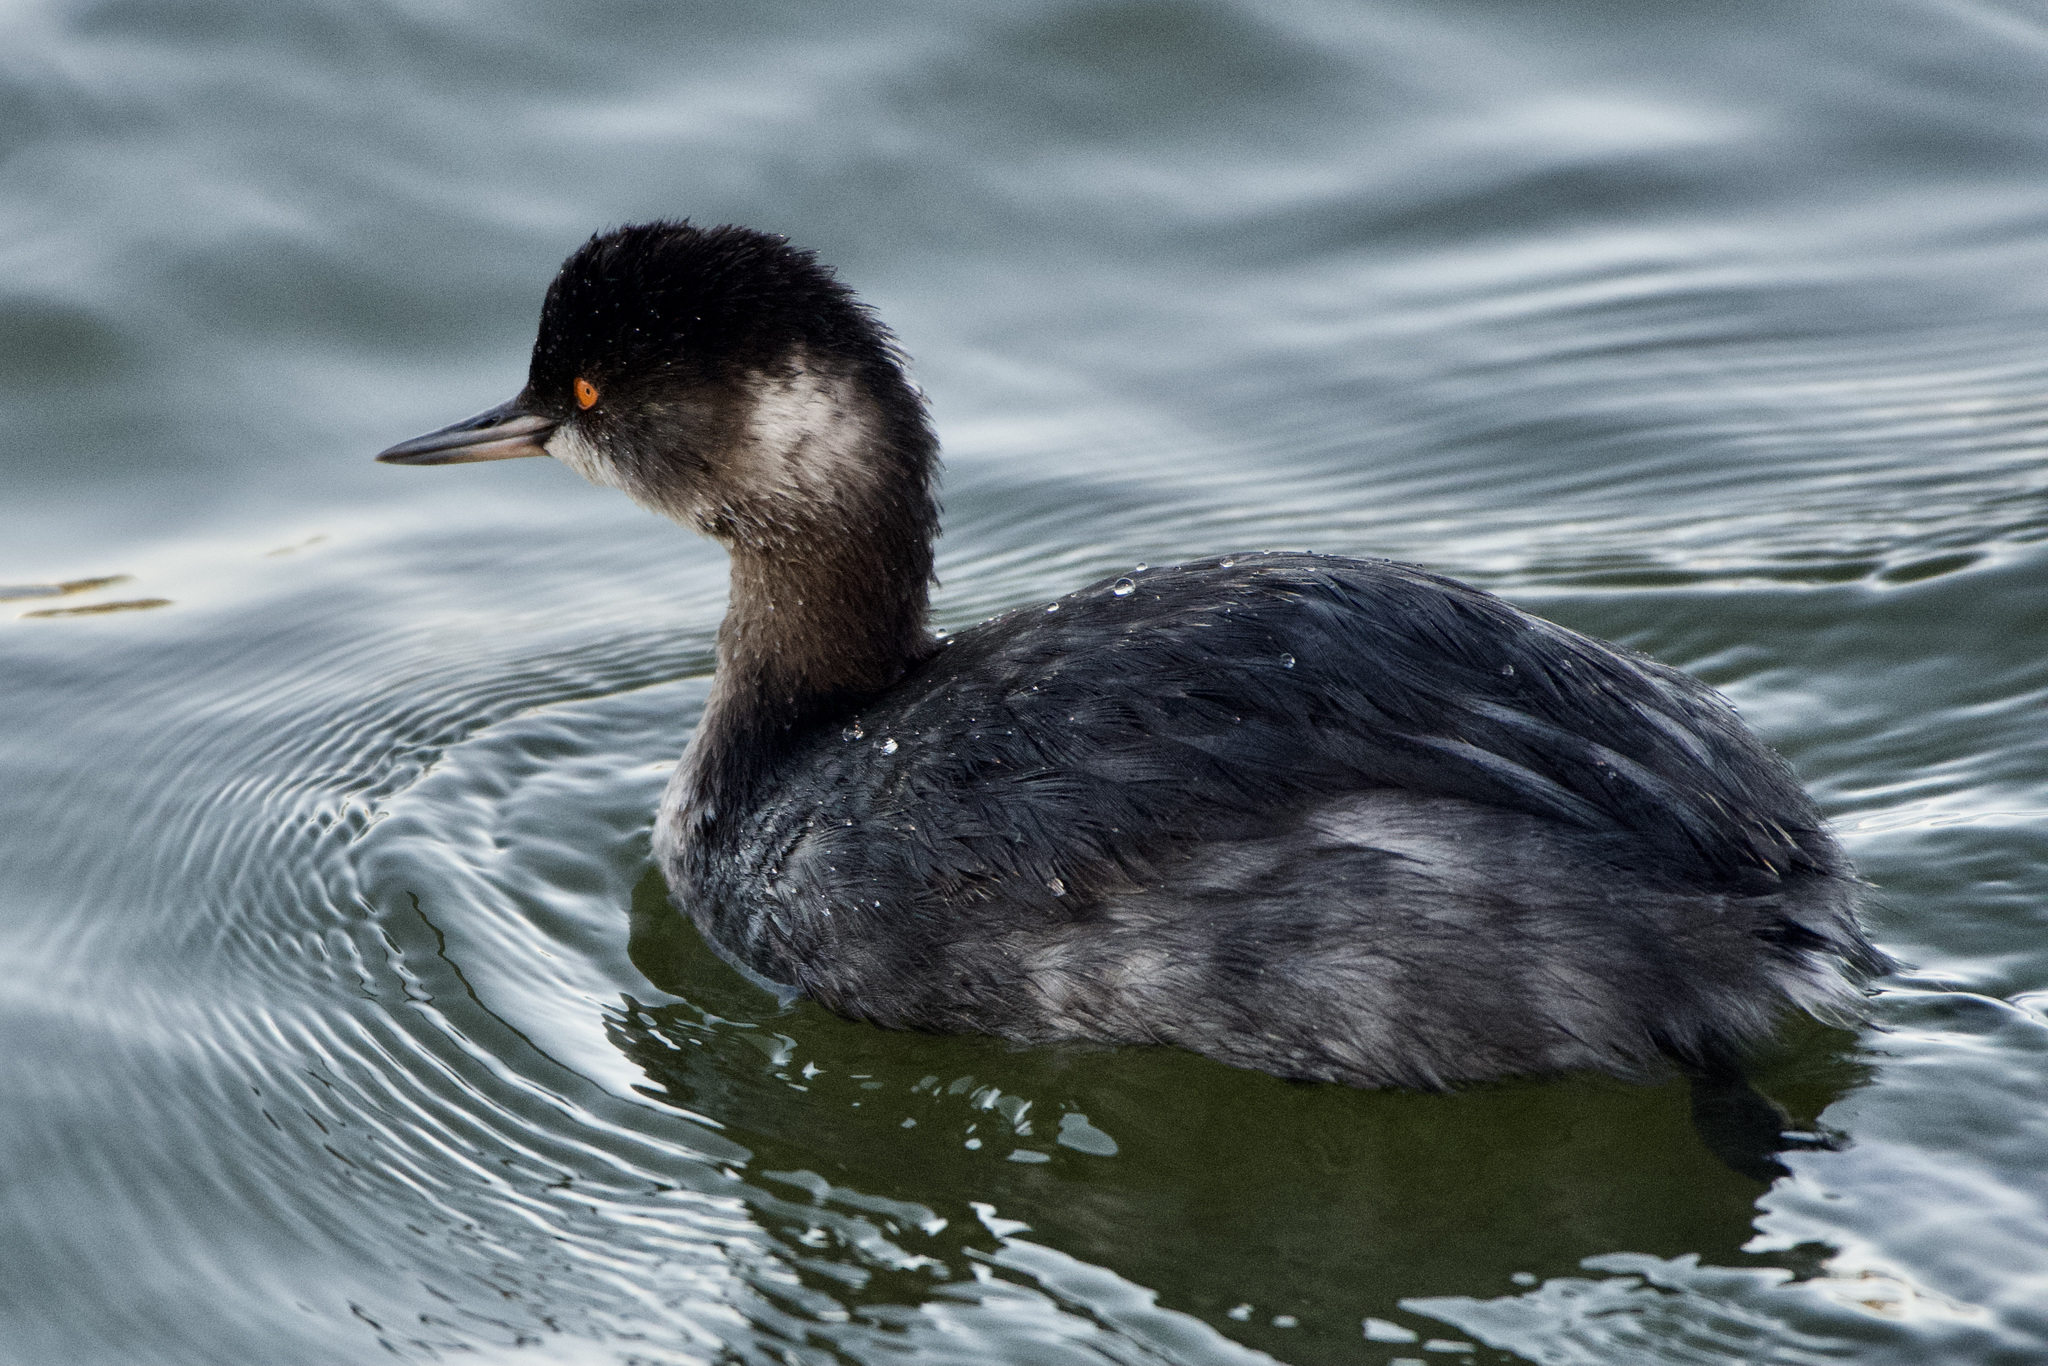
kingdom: Animalia
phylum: Chordata
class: Aves
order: Podicipediformes
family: Podicipedidae
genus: Podiceps
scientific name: Podiceps nigricollis
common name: Black-necked grebe
